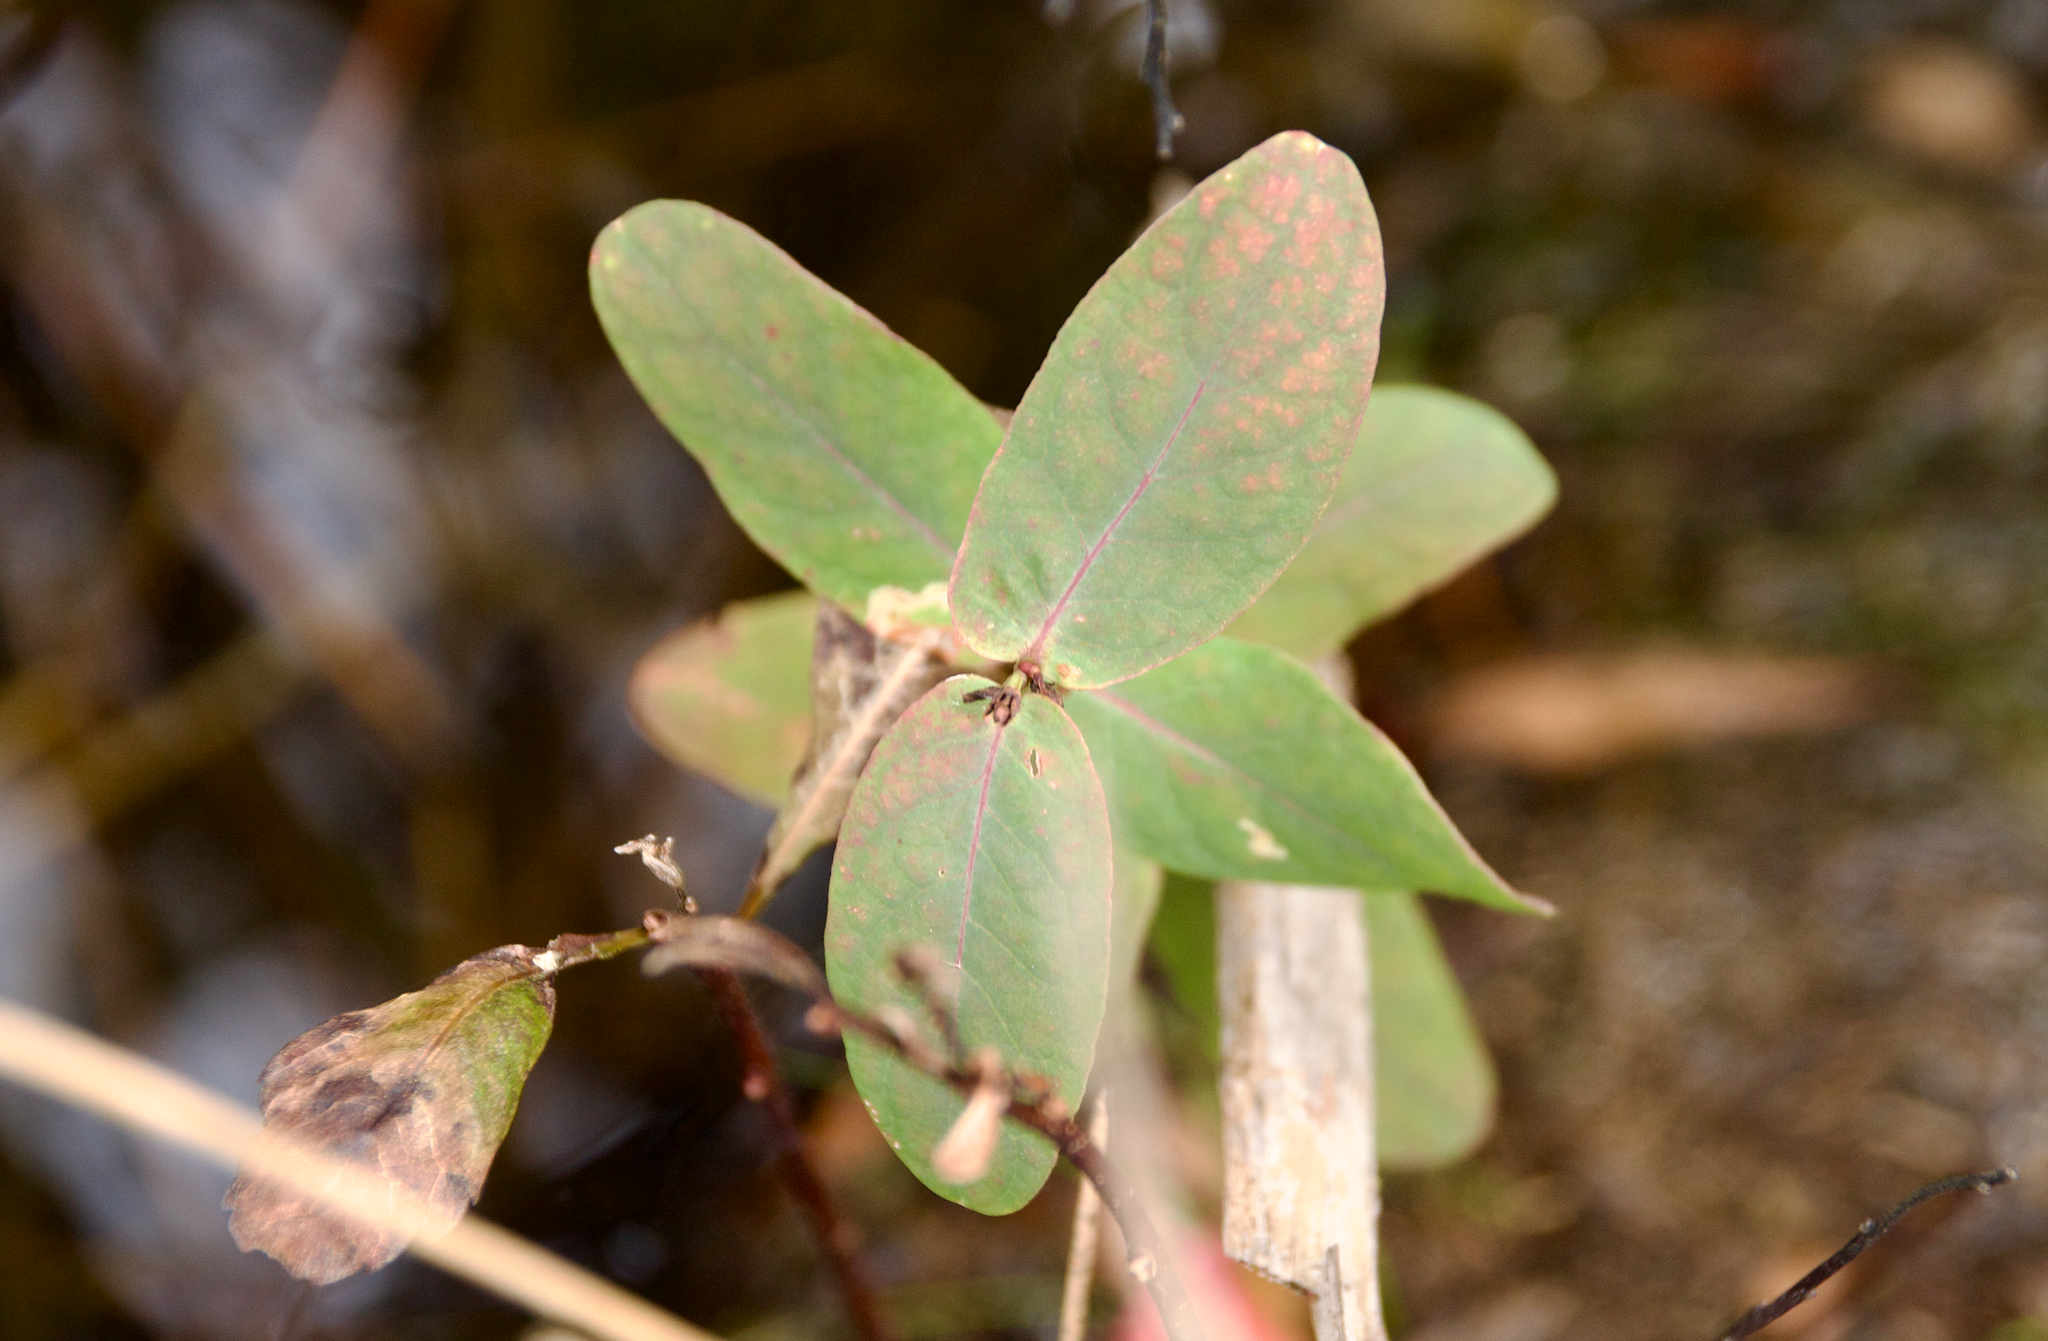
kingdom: Plantae
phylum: Tracheophyta
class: Magnoliopsida
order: Malpighiales
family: Hypericaceae
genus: Triadenum
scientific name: Triadenum fraseri
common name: Fraser's marsh st. johnswort
